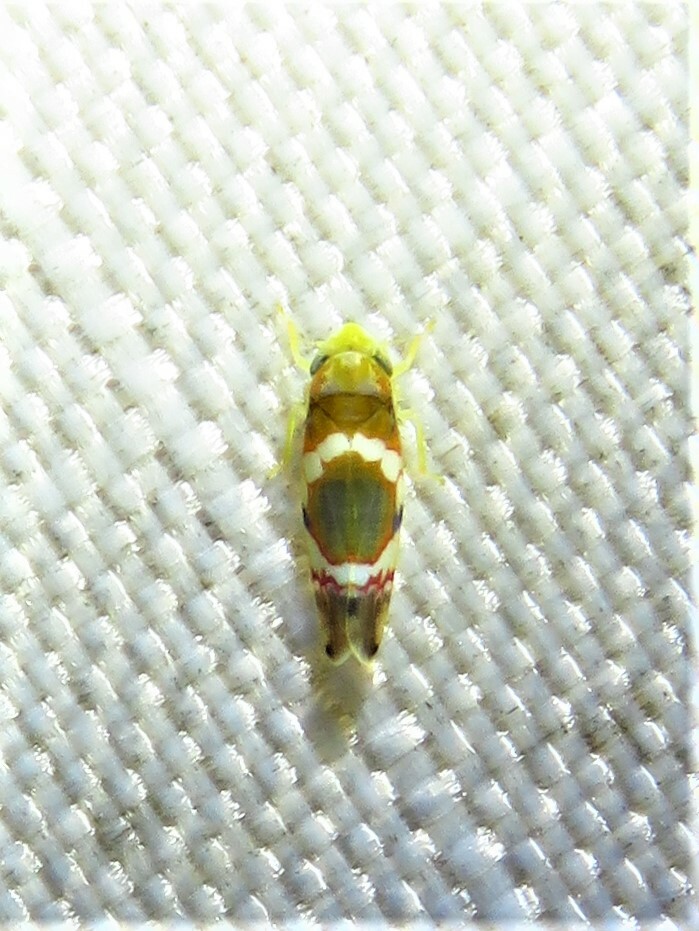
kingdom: Animalia
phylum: Arthropoda
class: Insecta
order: Hemiptera
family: Cicadellidae
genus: Erythroneura
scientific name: Erythroneura vitis
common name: Grapevine leafhopper
